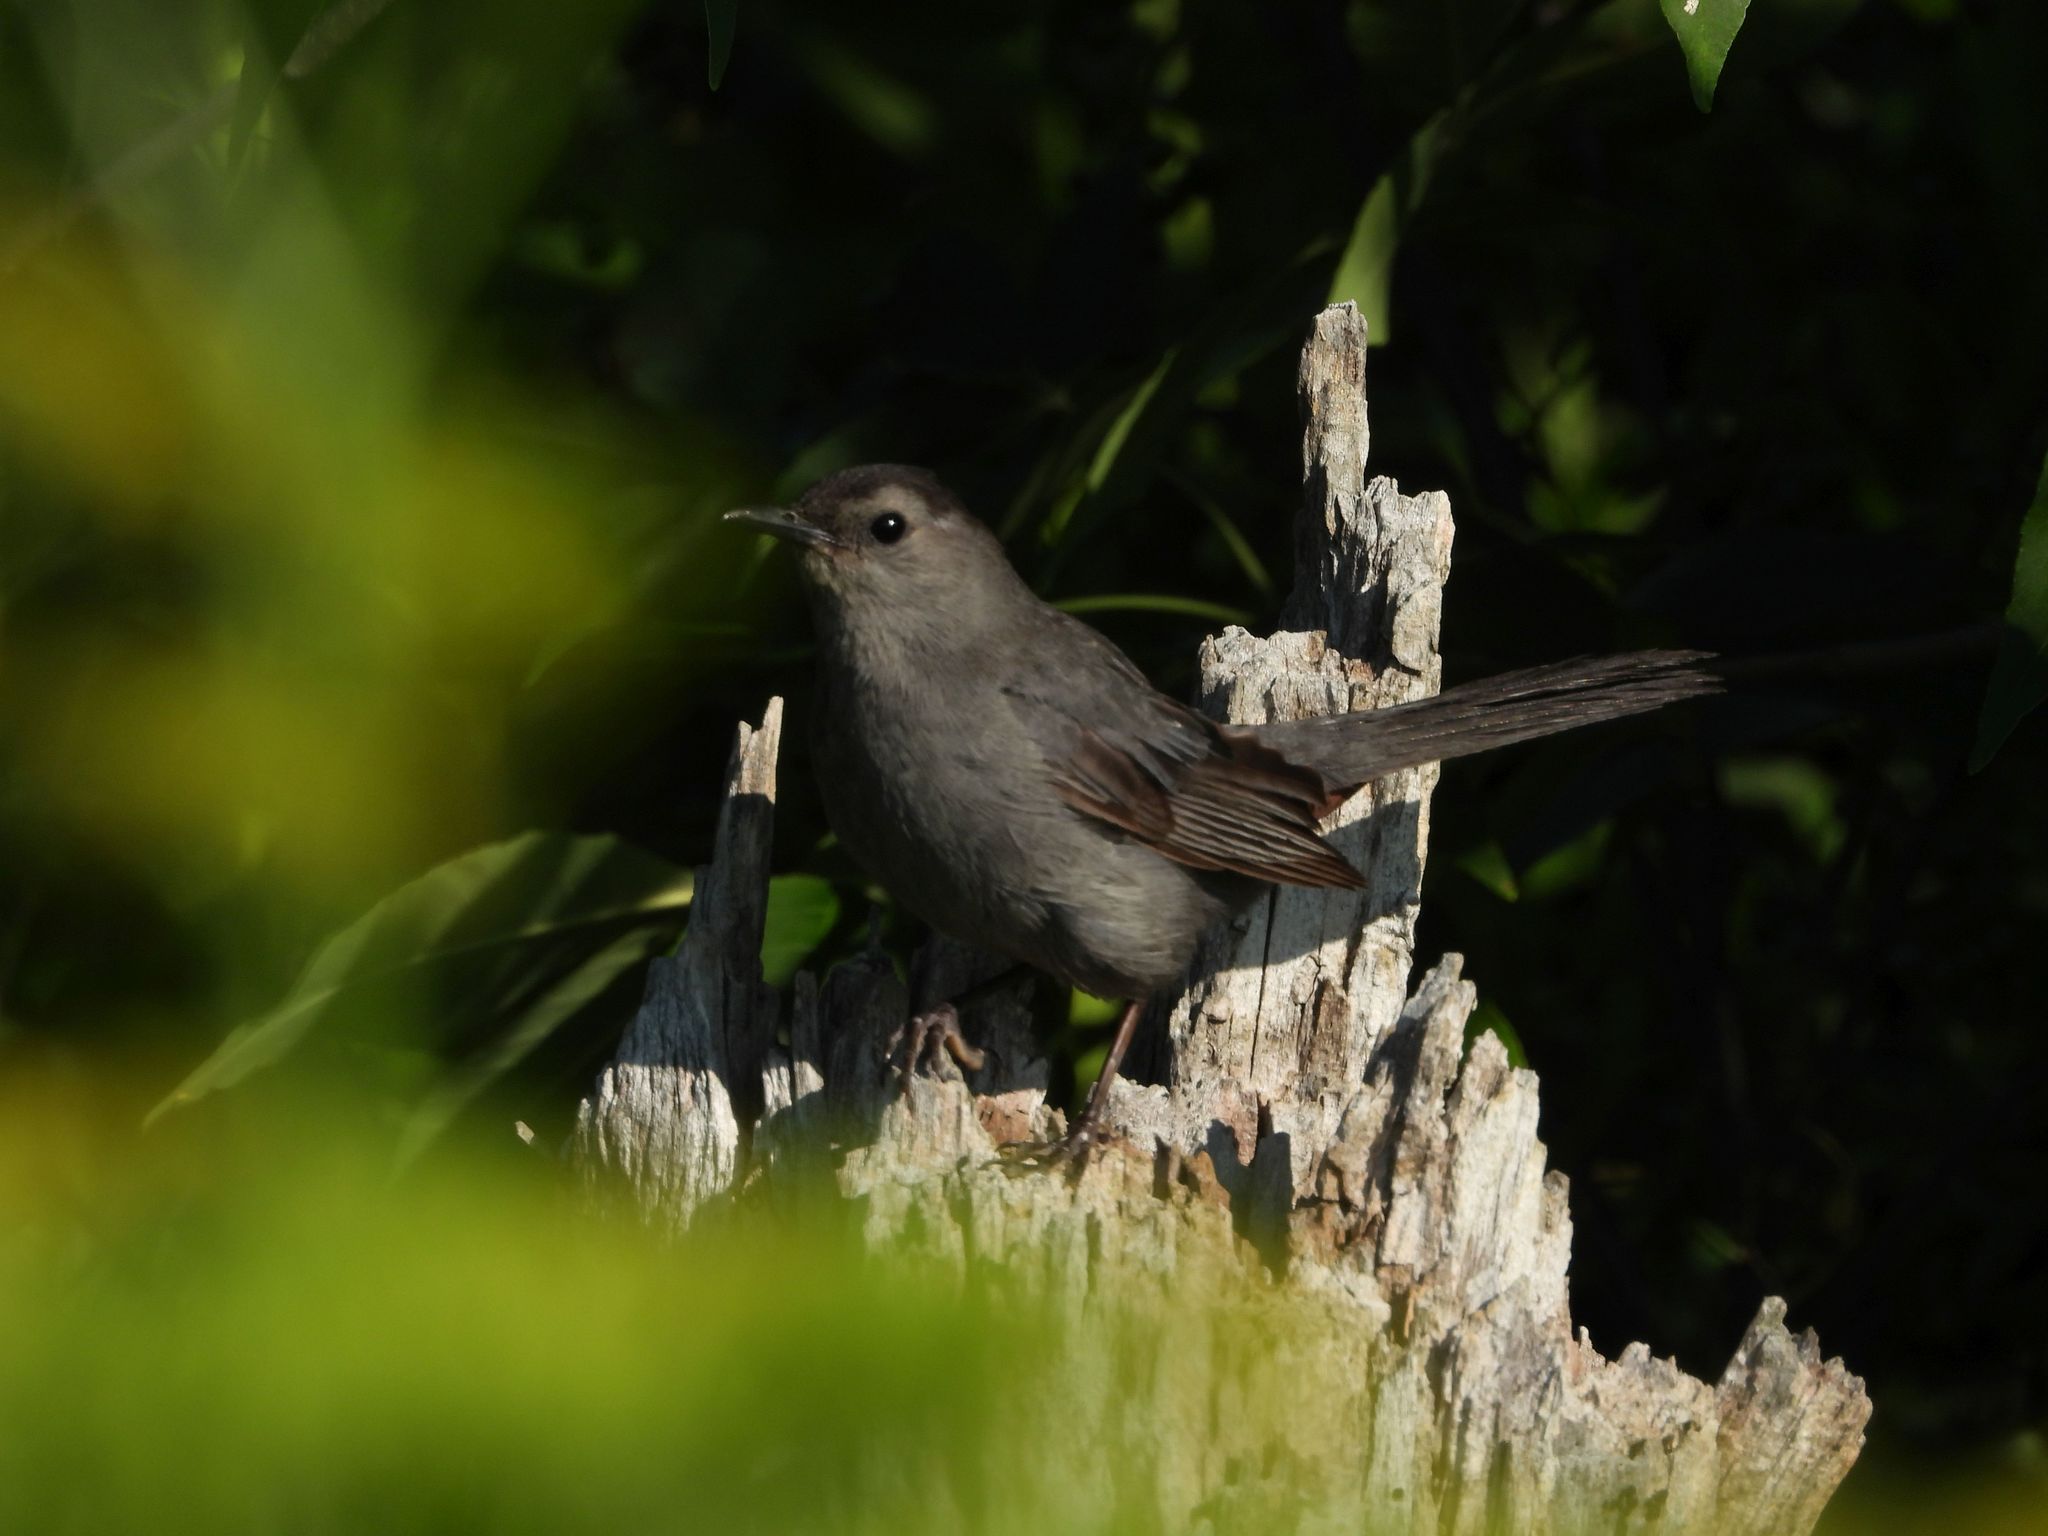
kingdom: Animalia
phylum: Chordata
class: Aves
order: Passeriformes
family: Mimidae
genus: Dumetella
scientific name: Dumetella carolinensis
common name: Gray catbird
